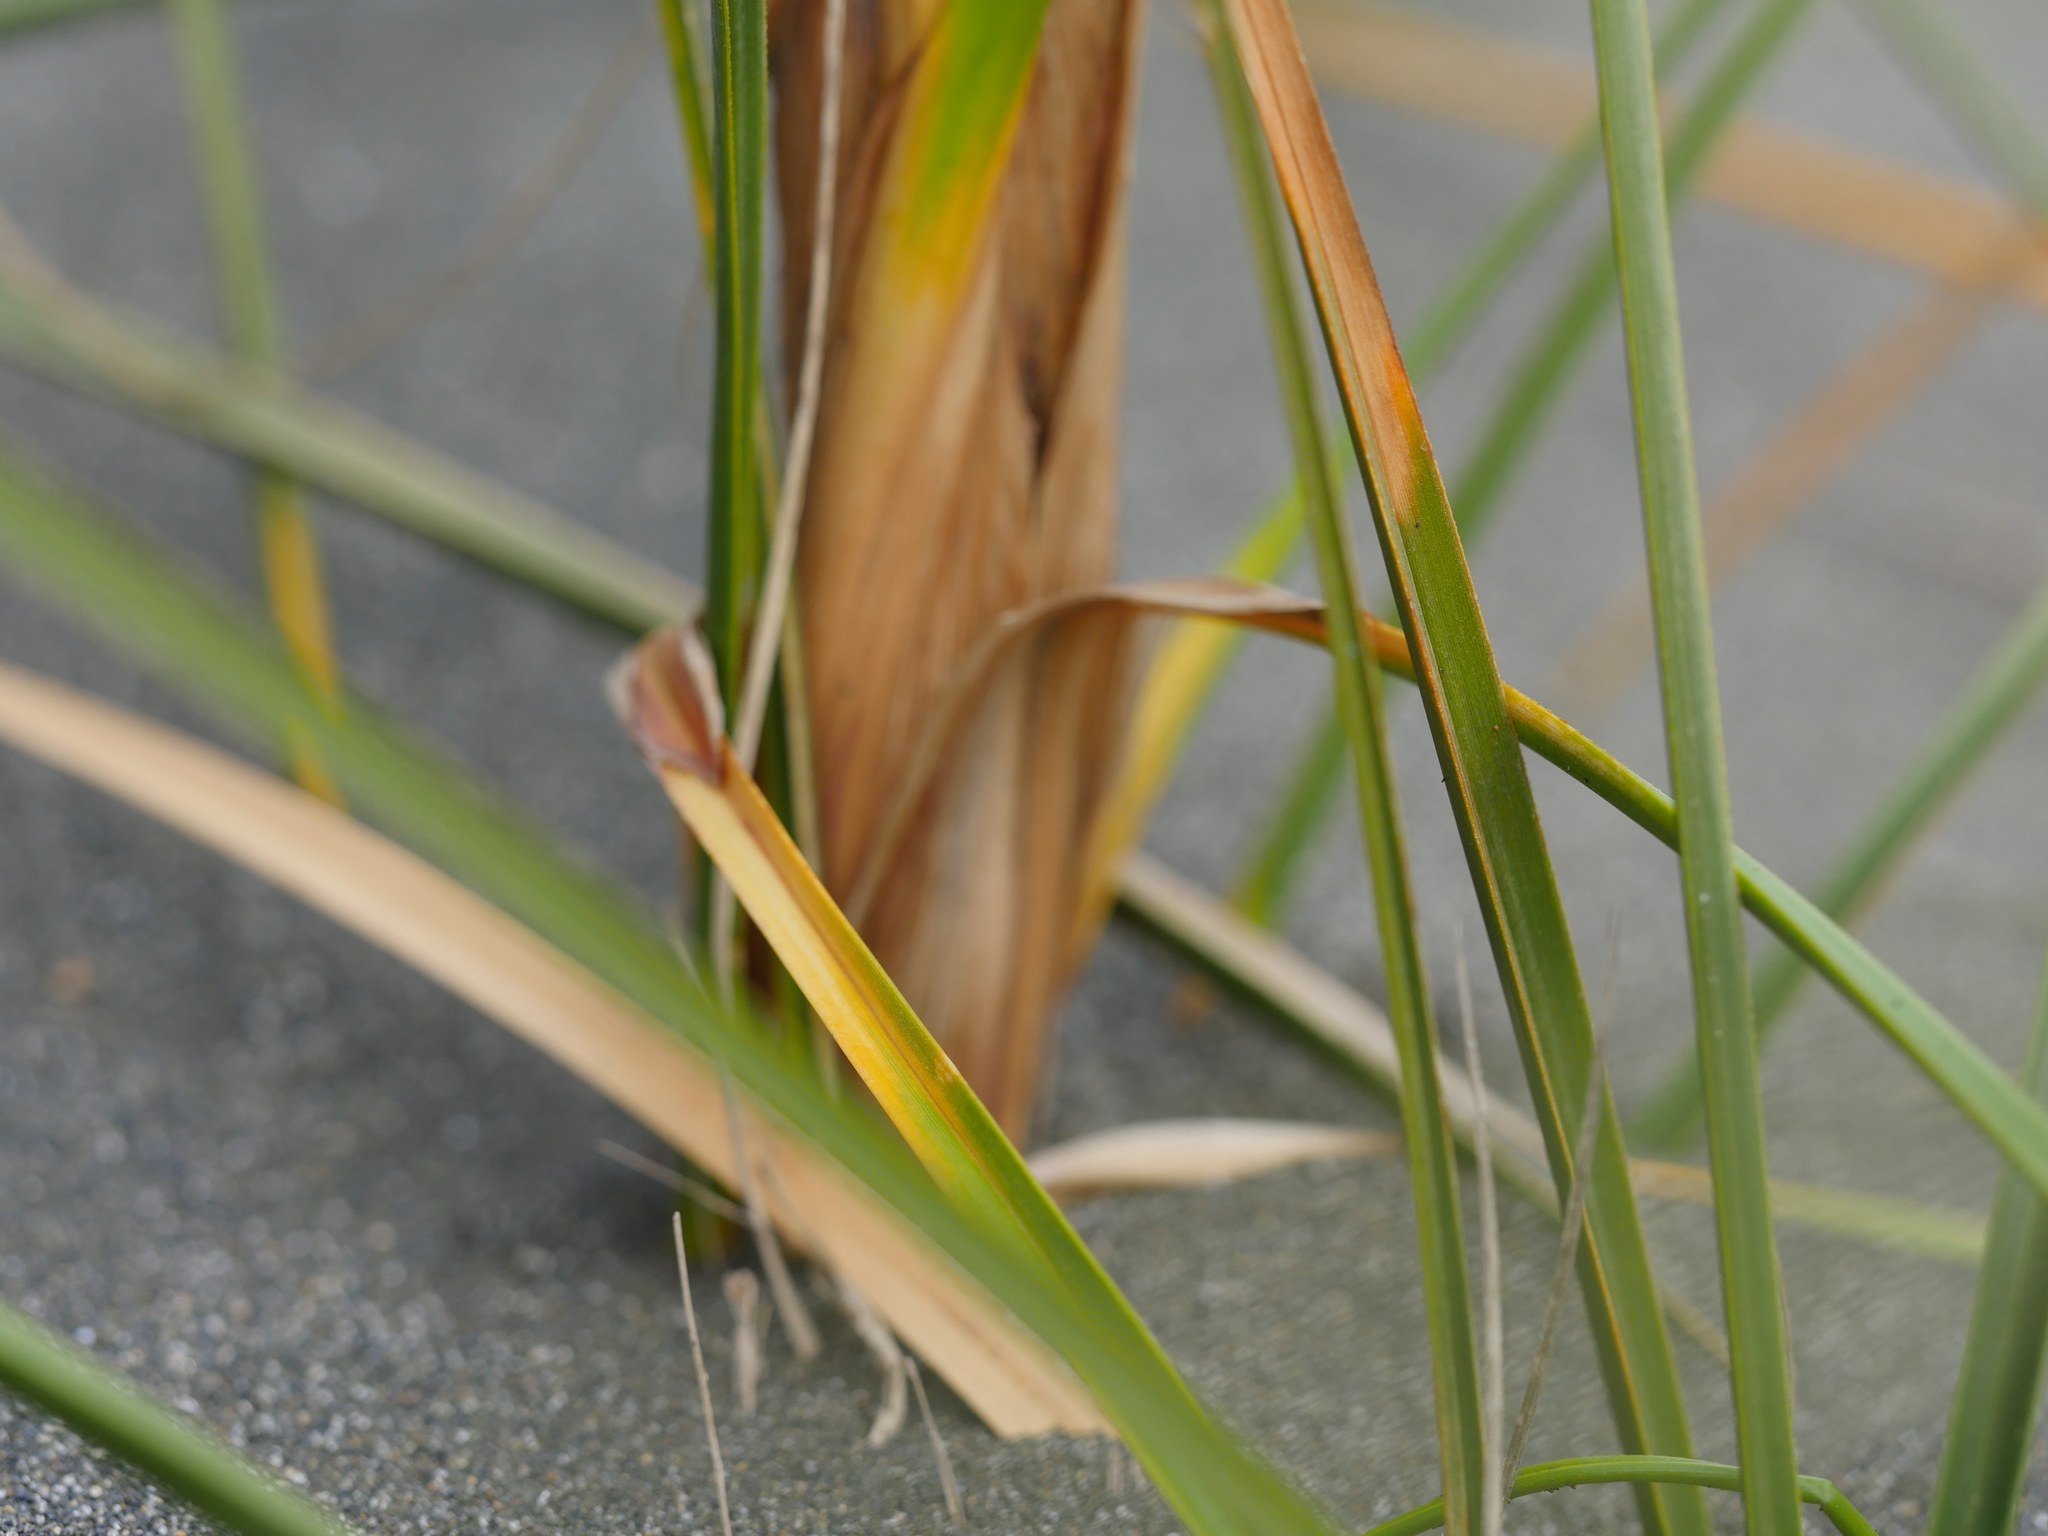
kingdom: Plantae
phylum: Tracheophyta
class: Liliopsida
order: Poales
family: Cyperaceae
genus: Ficinia
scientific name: Ficinia spiralis
